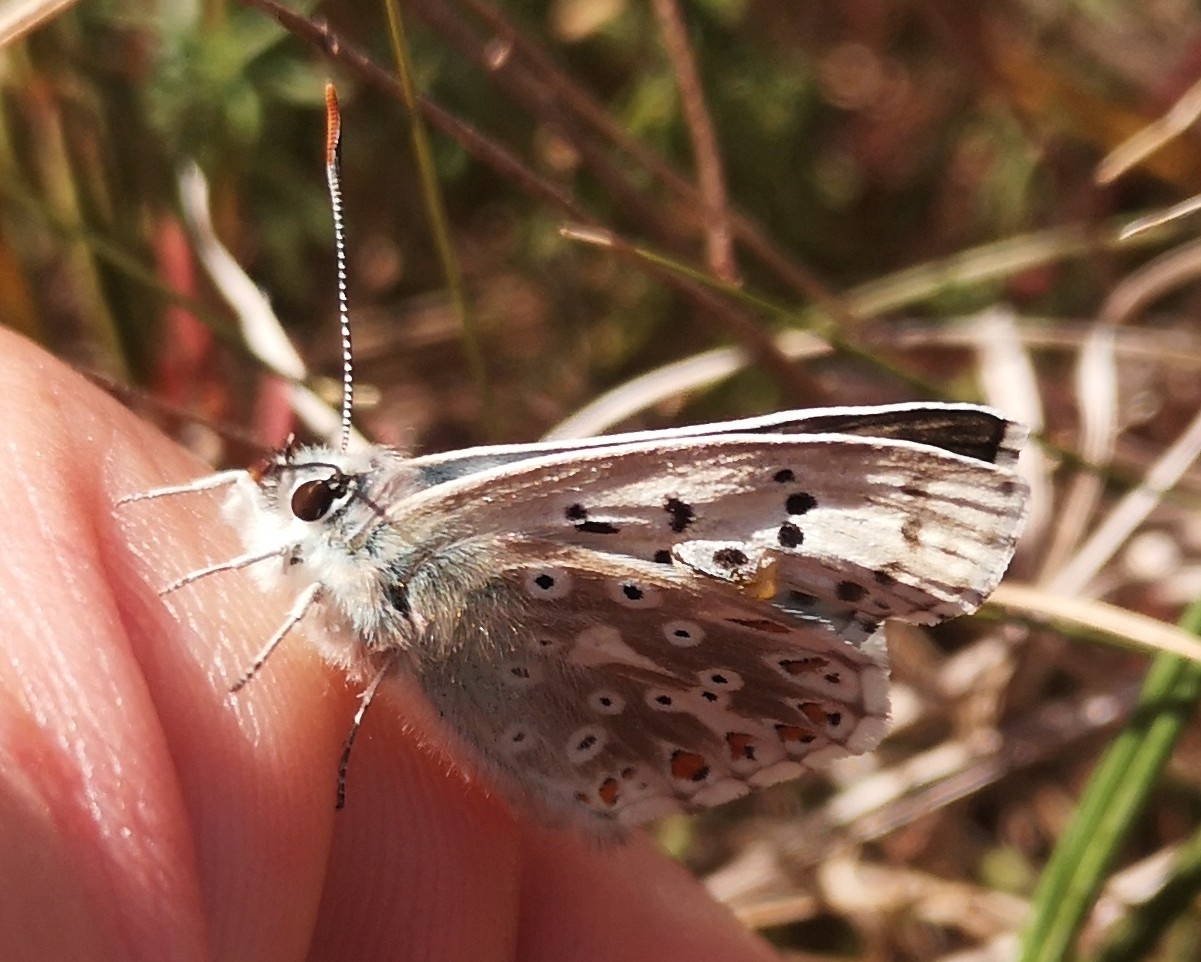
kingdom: Animalia
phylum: Arthropoda
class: Insecta
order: Lepidoptera
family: Lycaenidae
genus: Lysandra
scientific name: Lysandra coridon
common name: Chalkhill blue
